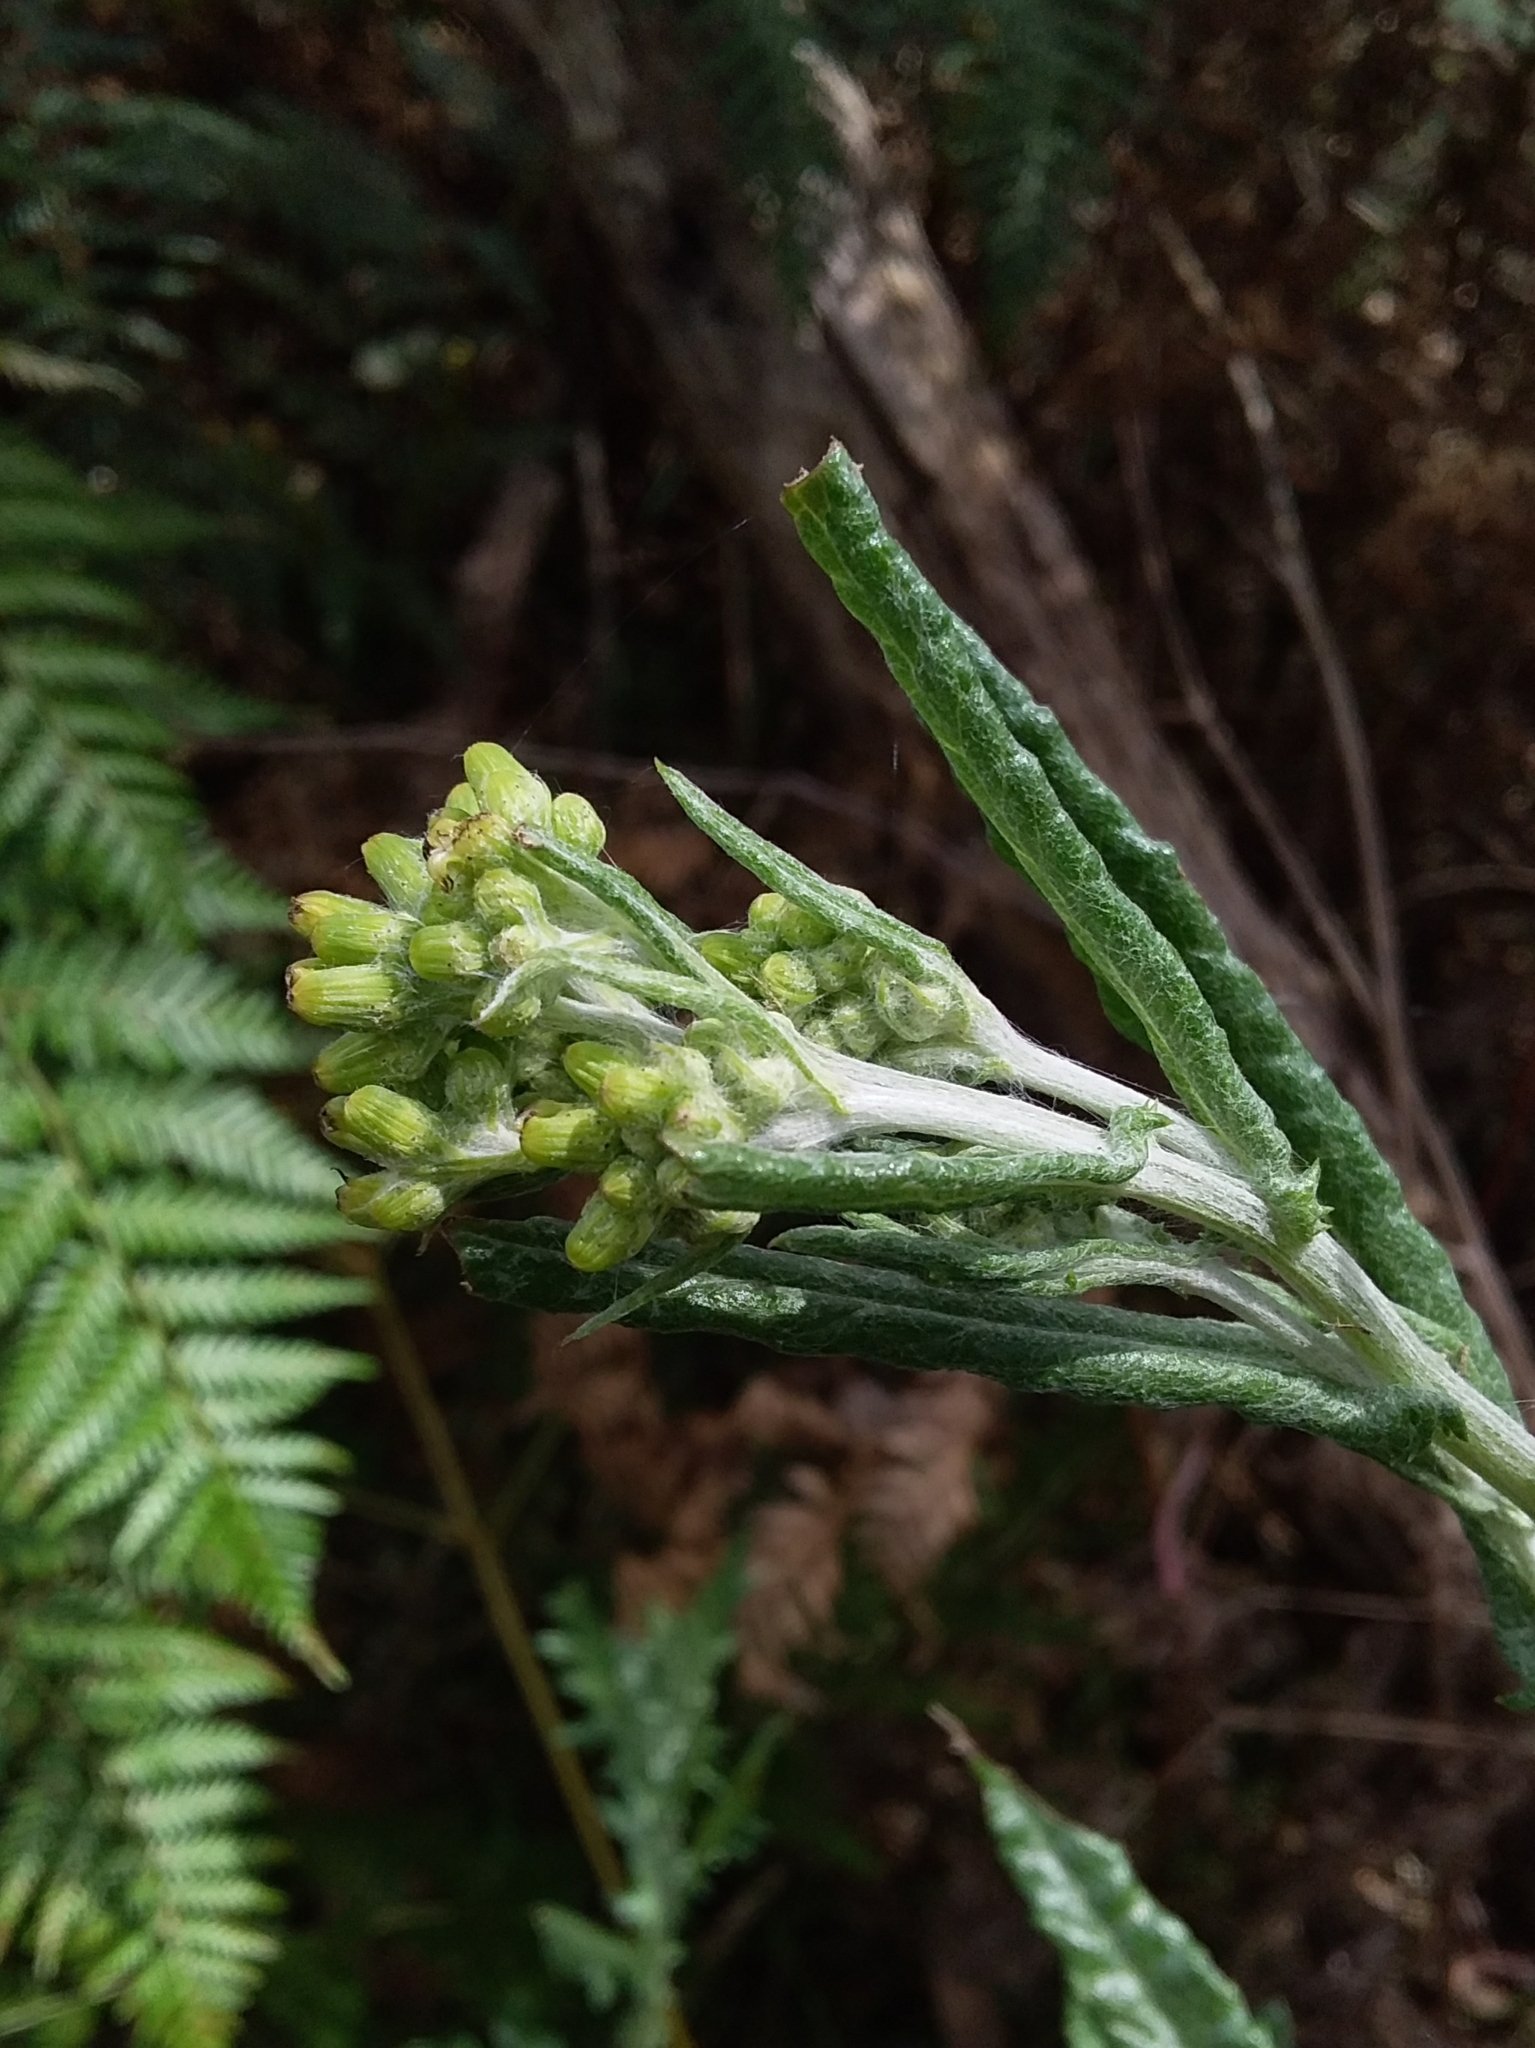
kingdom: Plantae
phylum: Tracheophyta
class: Magnoliopsida
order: Asterales
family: Asteraceae
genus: Senecio
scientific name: Senecio hispidulus
